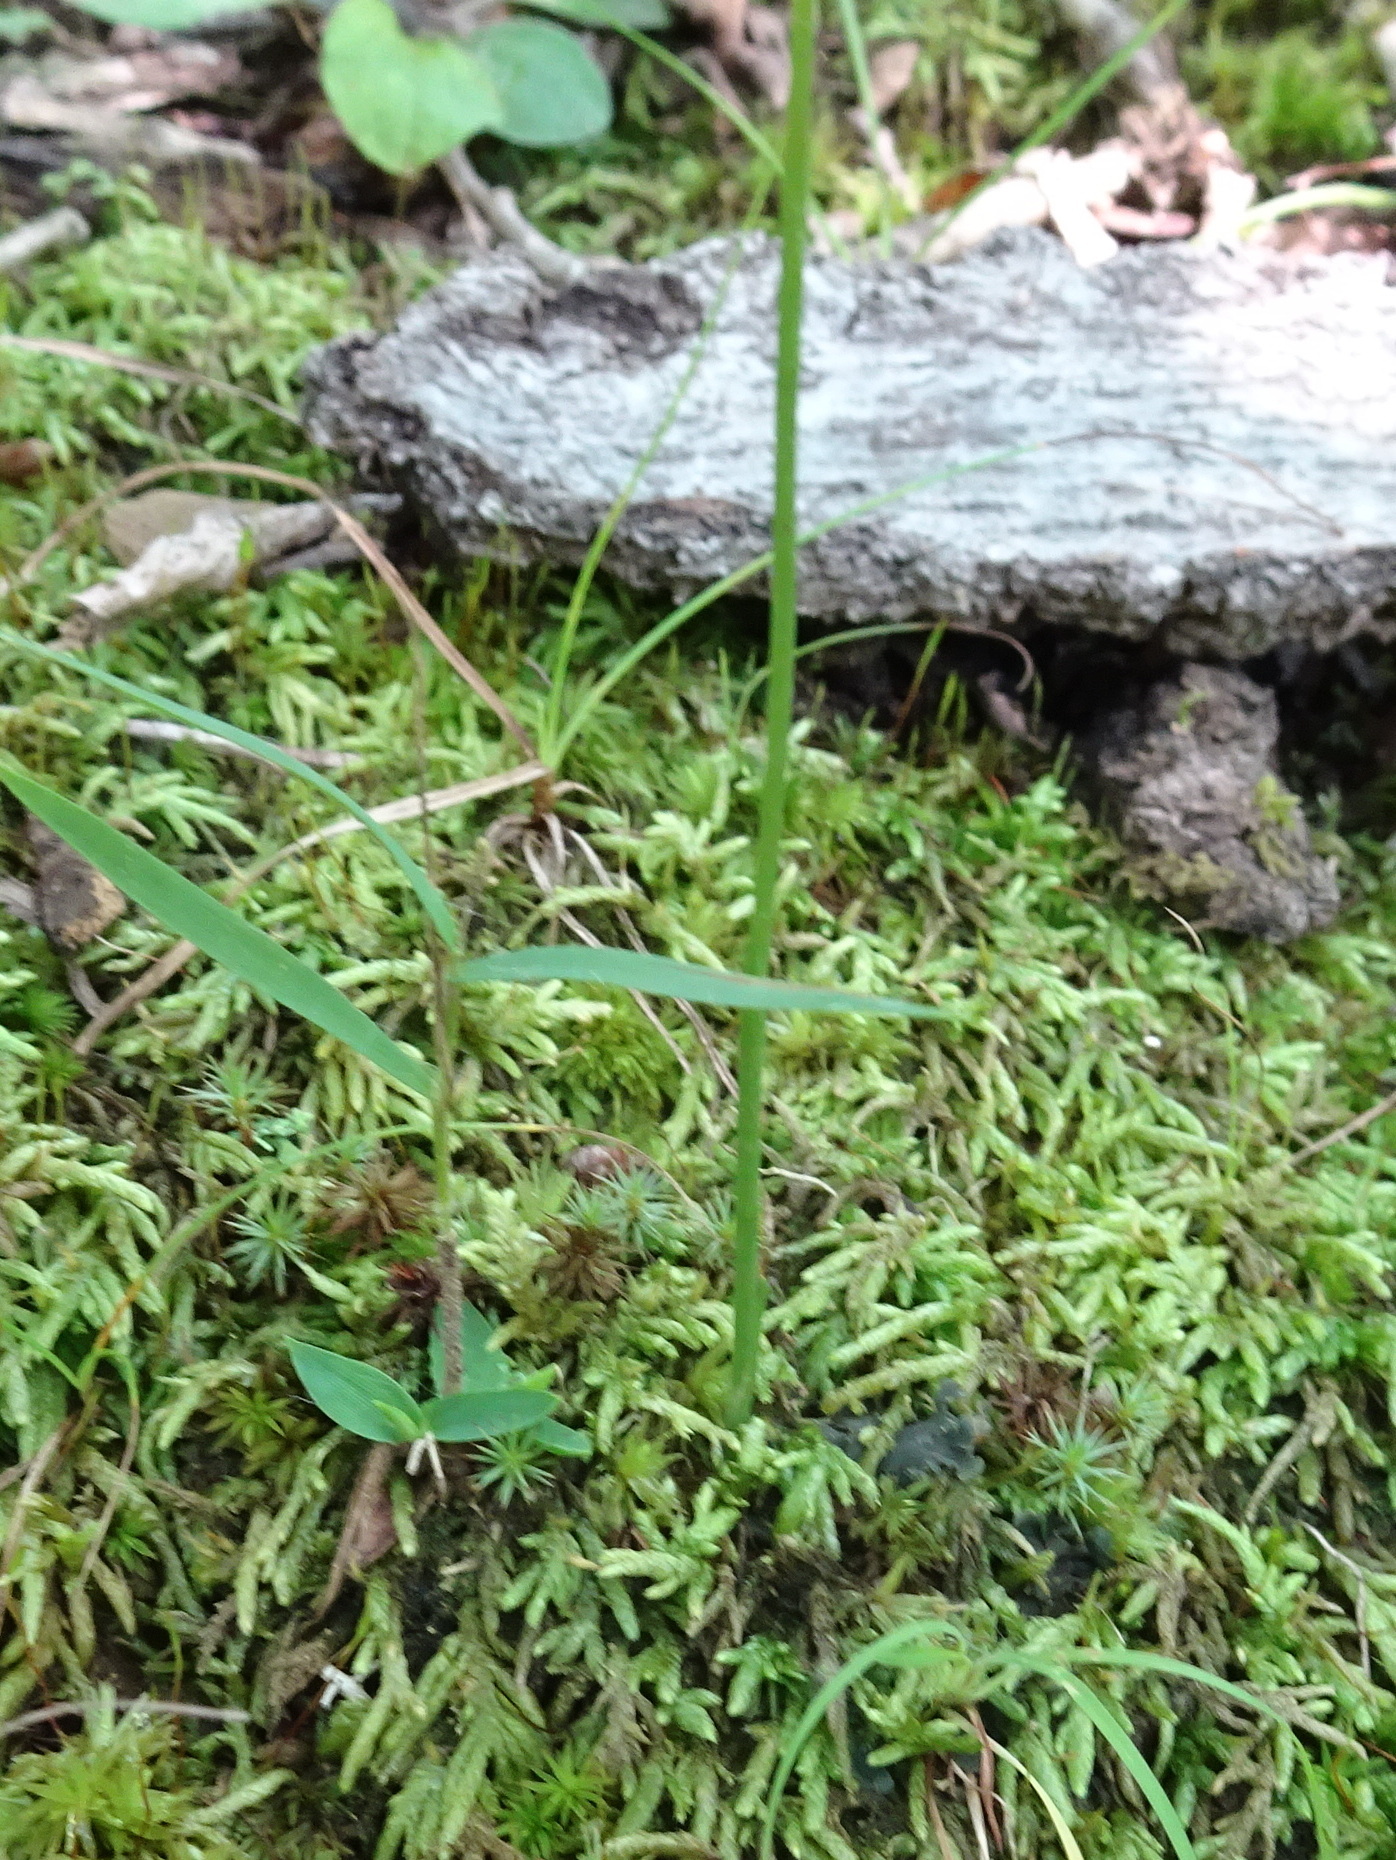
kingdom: Plantae
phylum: Tracheophyta
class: Liliopsida
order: Asparagales
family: Orchidaceae
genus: Spiranthes
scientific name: Spiranthes tuberosa
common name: Little ladies'-tresses
